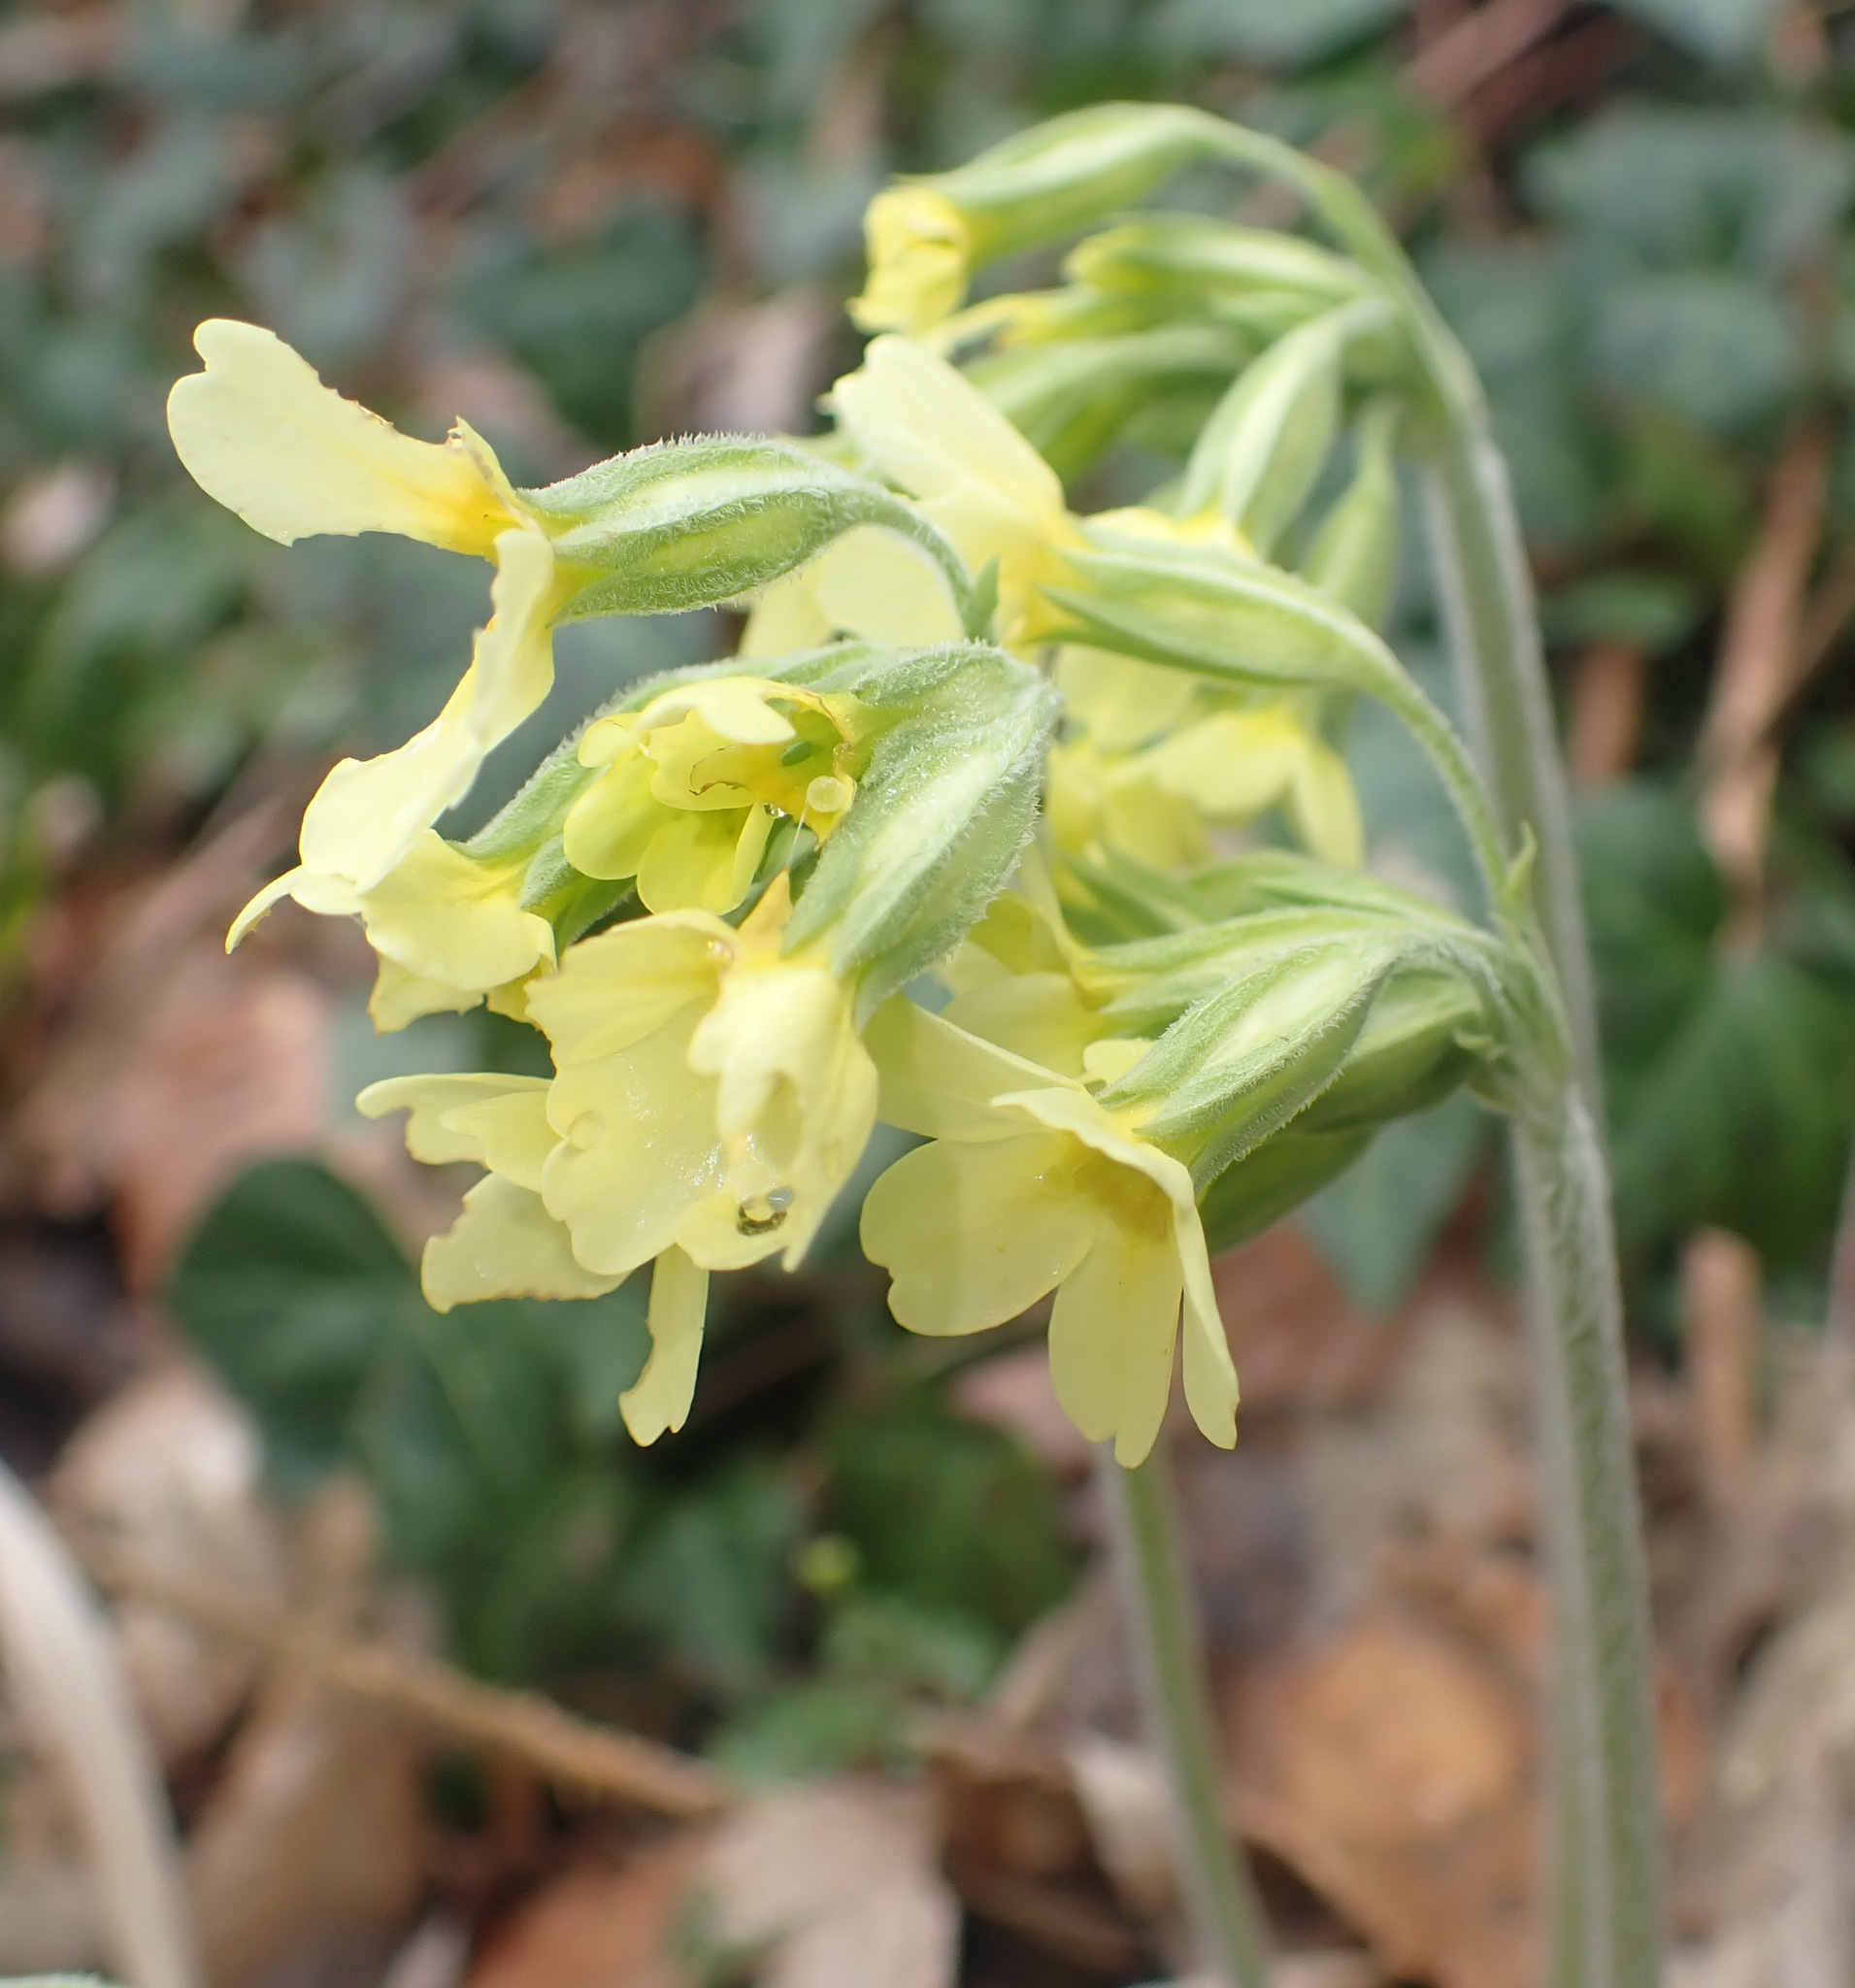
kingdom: Plantae
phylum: Tracheophyta
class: Magnoliopsida
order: Ericales
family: Primulaceae
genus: Primula
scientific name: Primula elatior
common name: Oxlip
